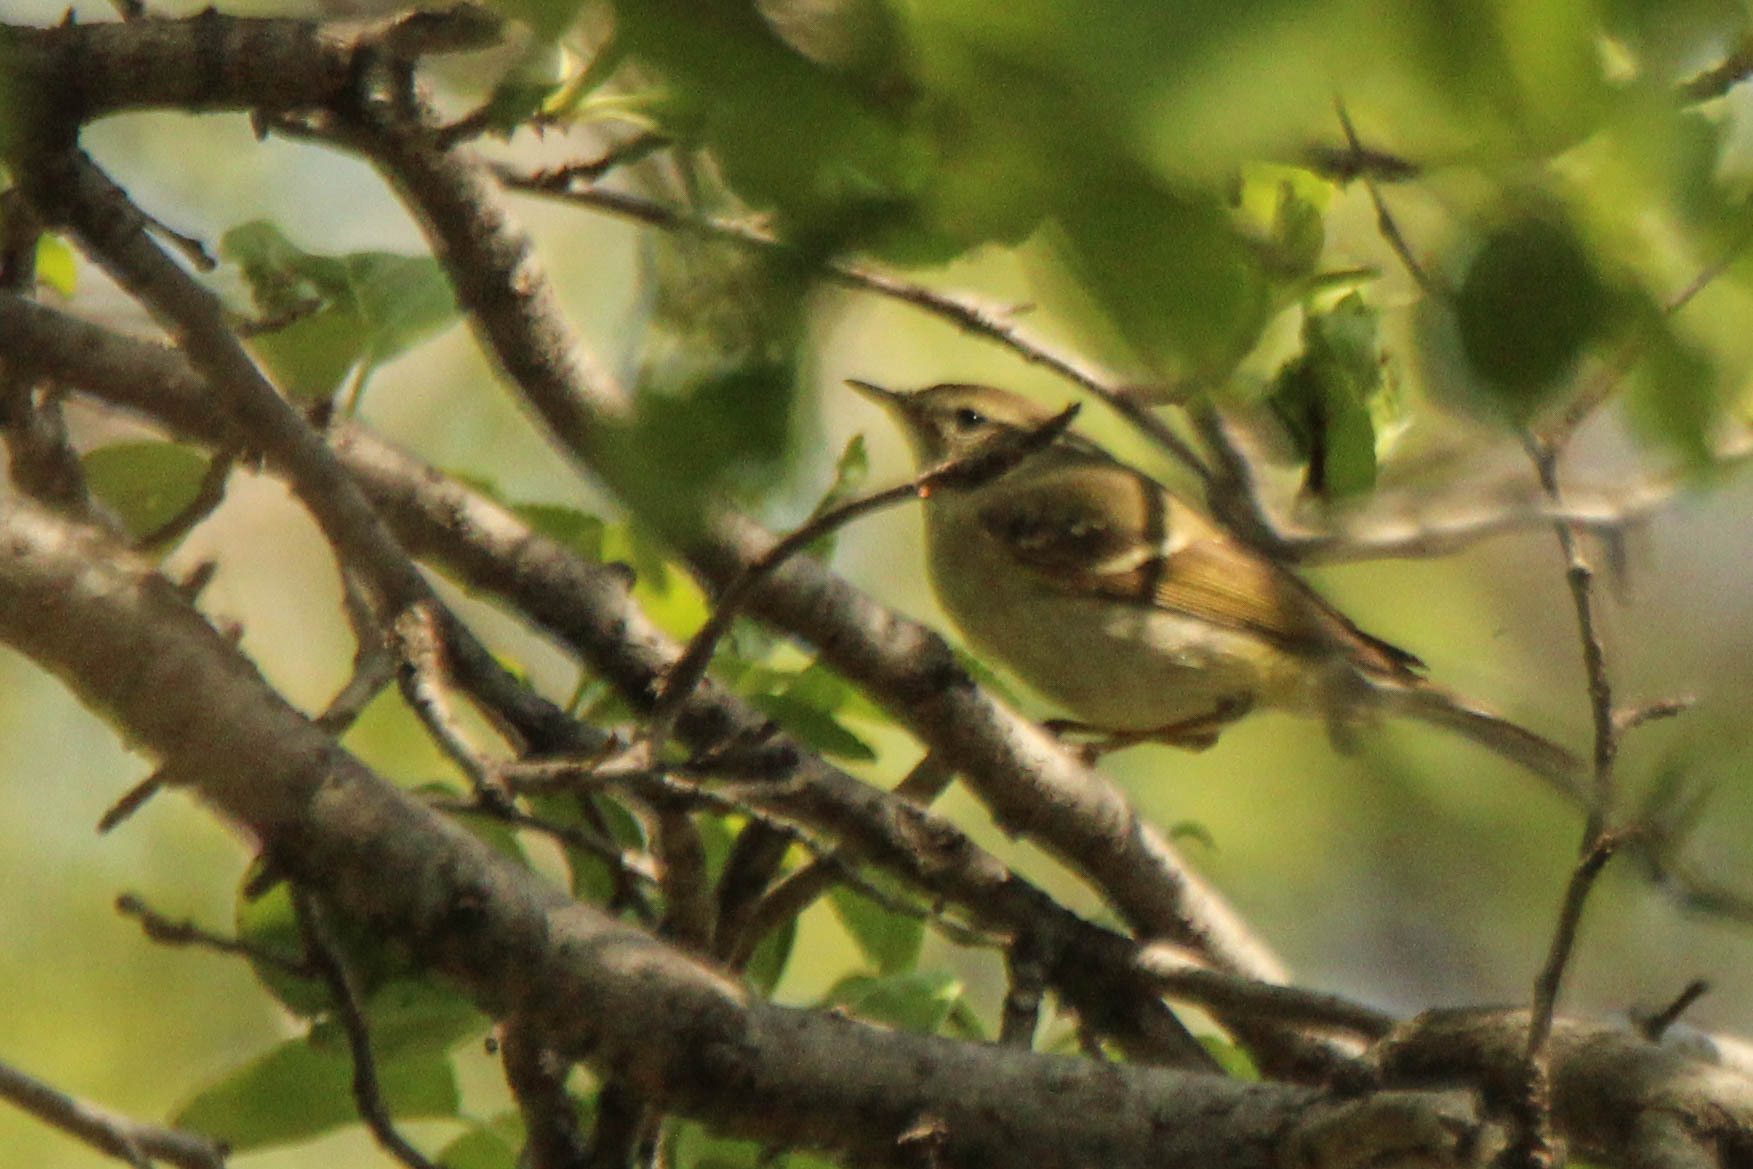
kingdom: Animalia
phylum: Chordata
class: Aves
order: Passeriformes
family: Phylloscopidae
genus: Phylloscopus
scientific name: Phylloscopus inornatus
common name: Yellow-browed warbler
